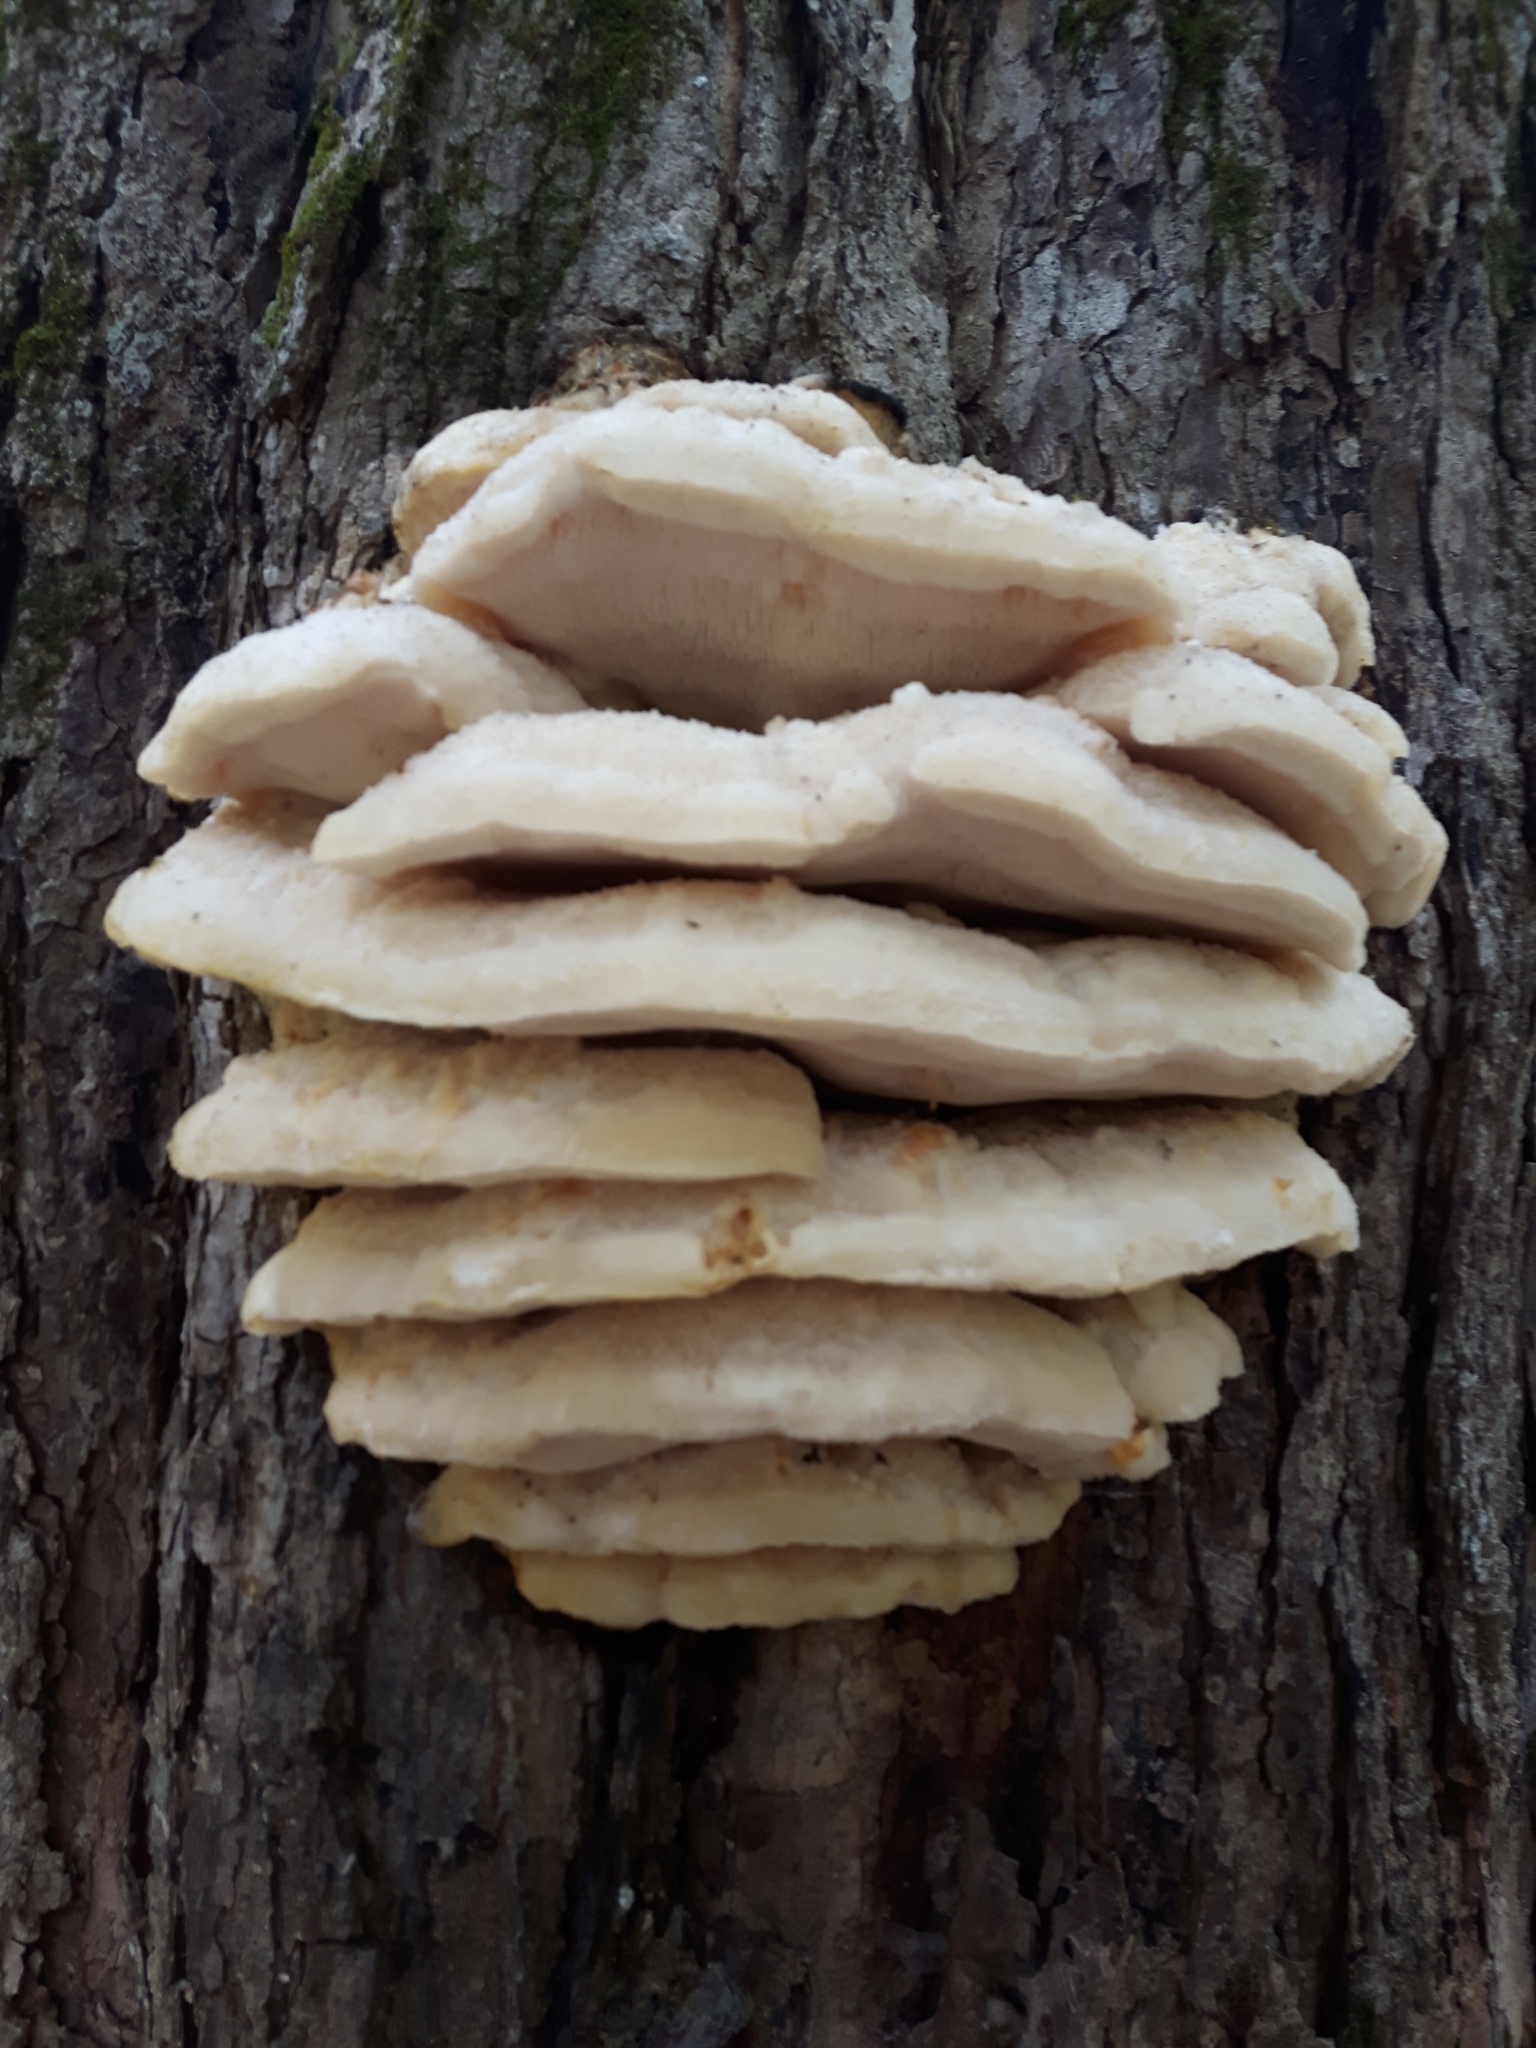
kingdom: Fungi
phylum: Basidiomycota
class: Agaricomycetes
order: Polyporales
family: Meruliaceae
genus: Climacodon
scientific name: Climacodon septentrionalis
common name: Northern tooth
